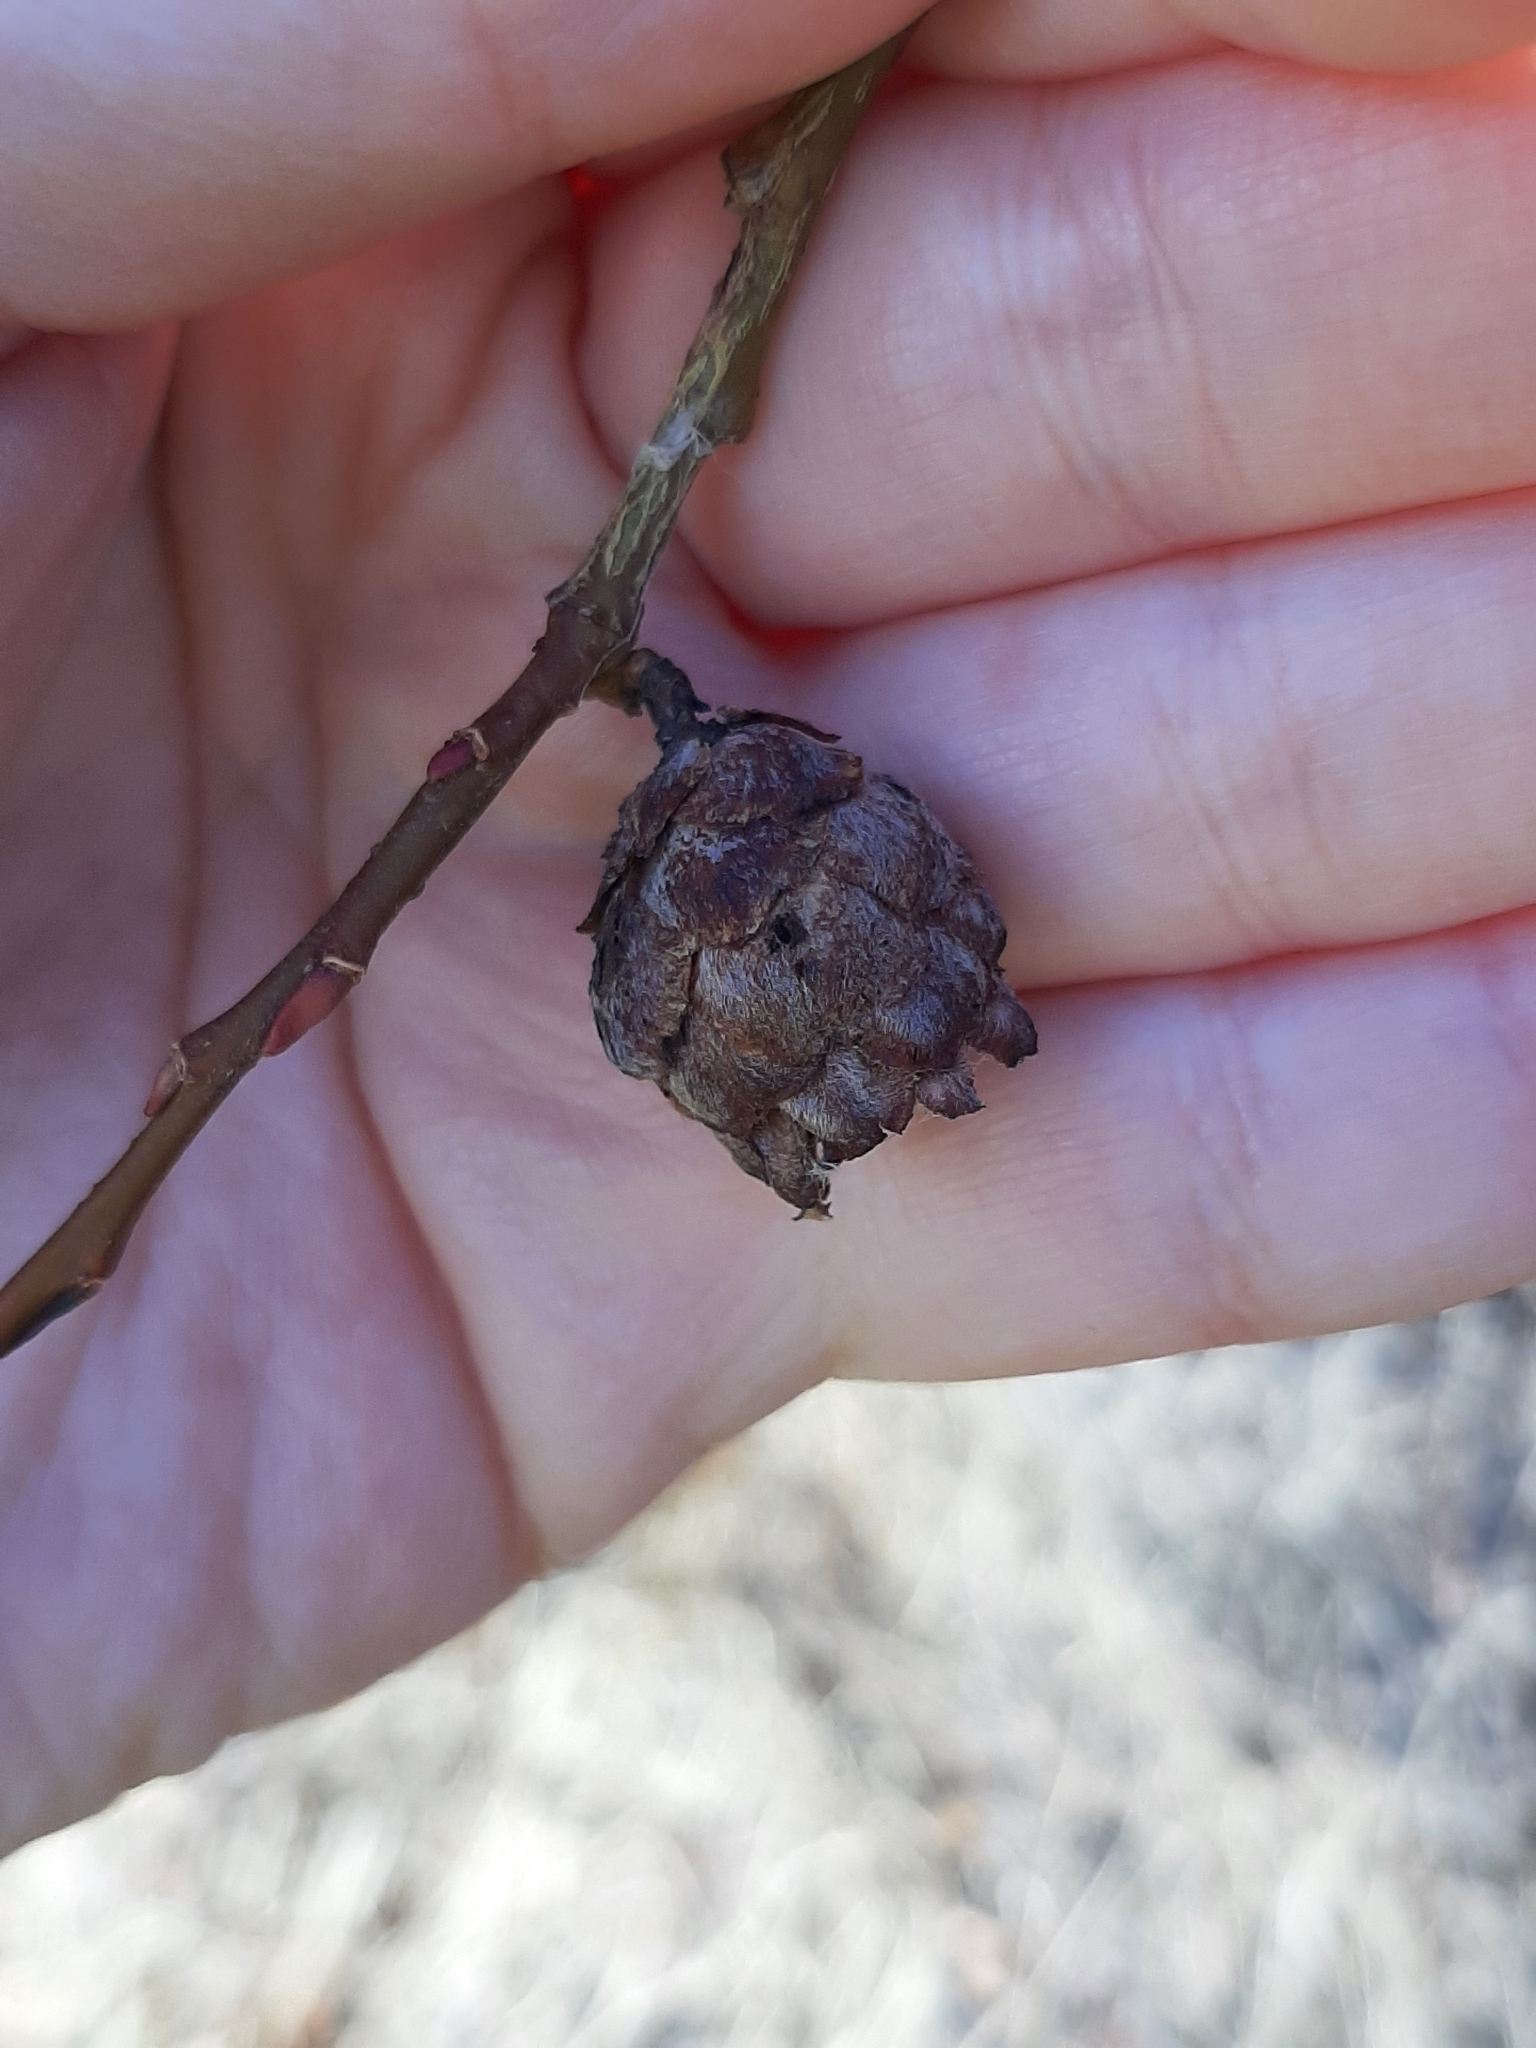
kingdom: Animalia
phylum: Arthropoda
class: Insecta
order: Diptera
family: Cecidomyiidae
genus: Rabdophaga
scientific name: Rabdophaga strobiloides
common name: Willow pinecone gall midge
